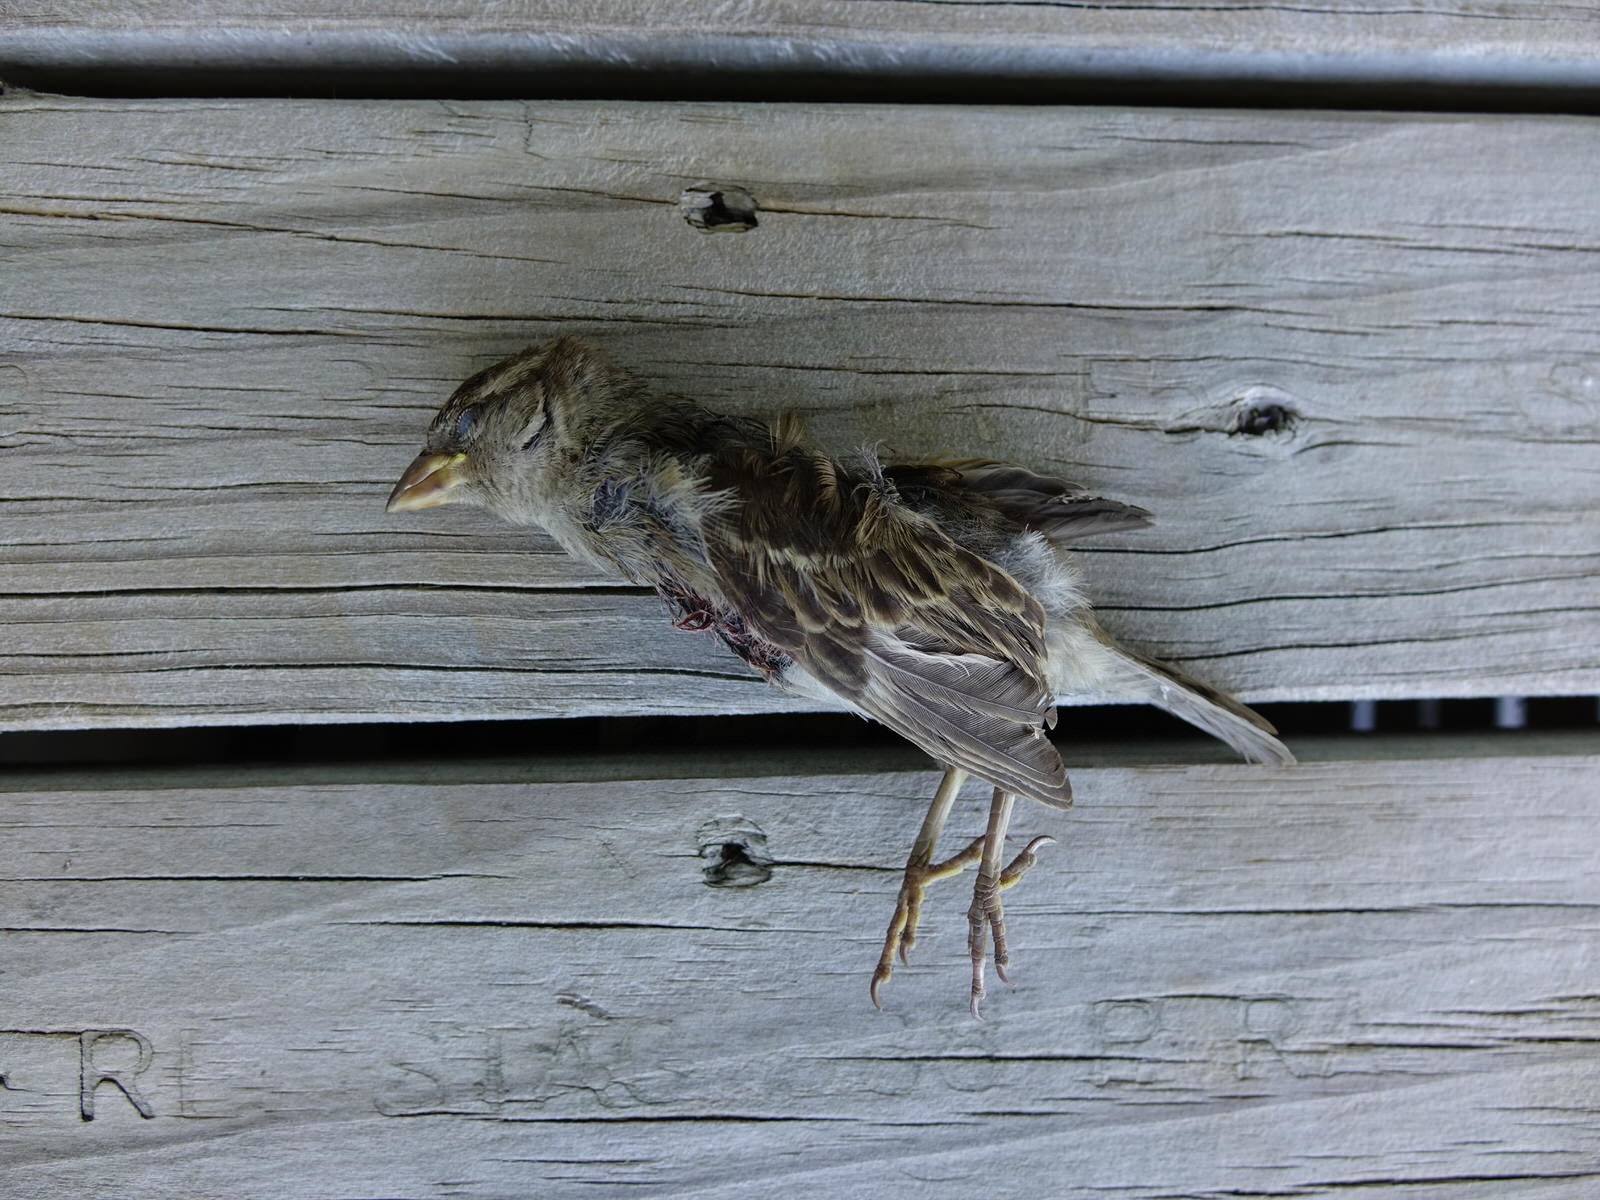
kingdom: Animalia
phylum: Chordata
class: Aves
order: Passeriformes
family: Passeridae
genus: Passer
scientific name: Passer domesticus
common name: House sparrow
